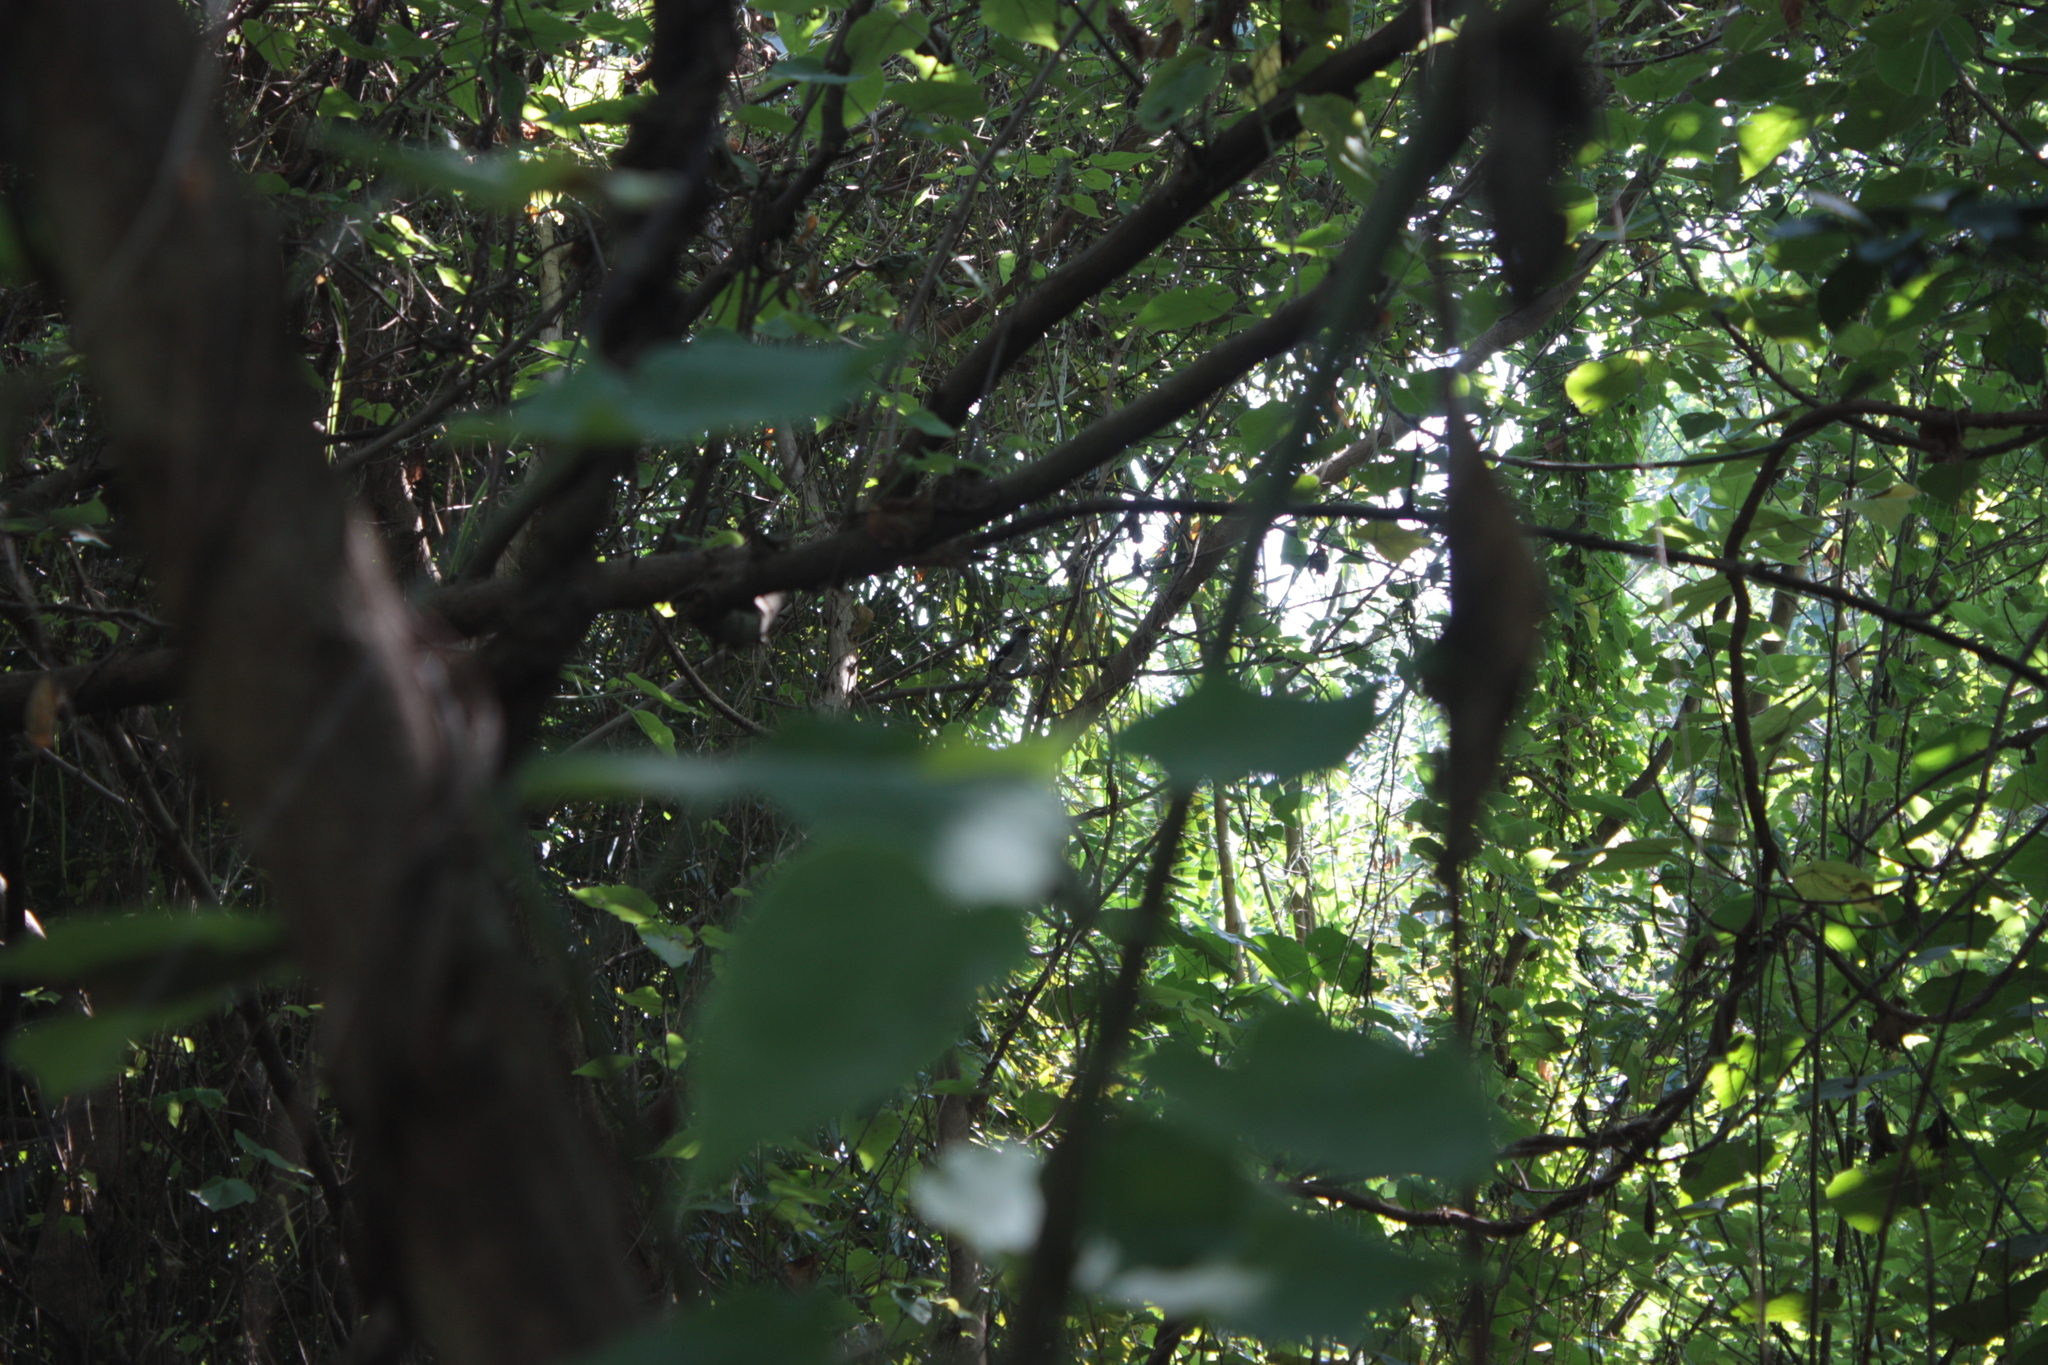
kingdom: Animalia
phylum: Chordata
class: Aves
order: Passeriformes
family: Corvidae
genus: Dendrocitta
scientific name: Dendrocitta formosae
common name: Grey treepie
